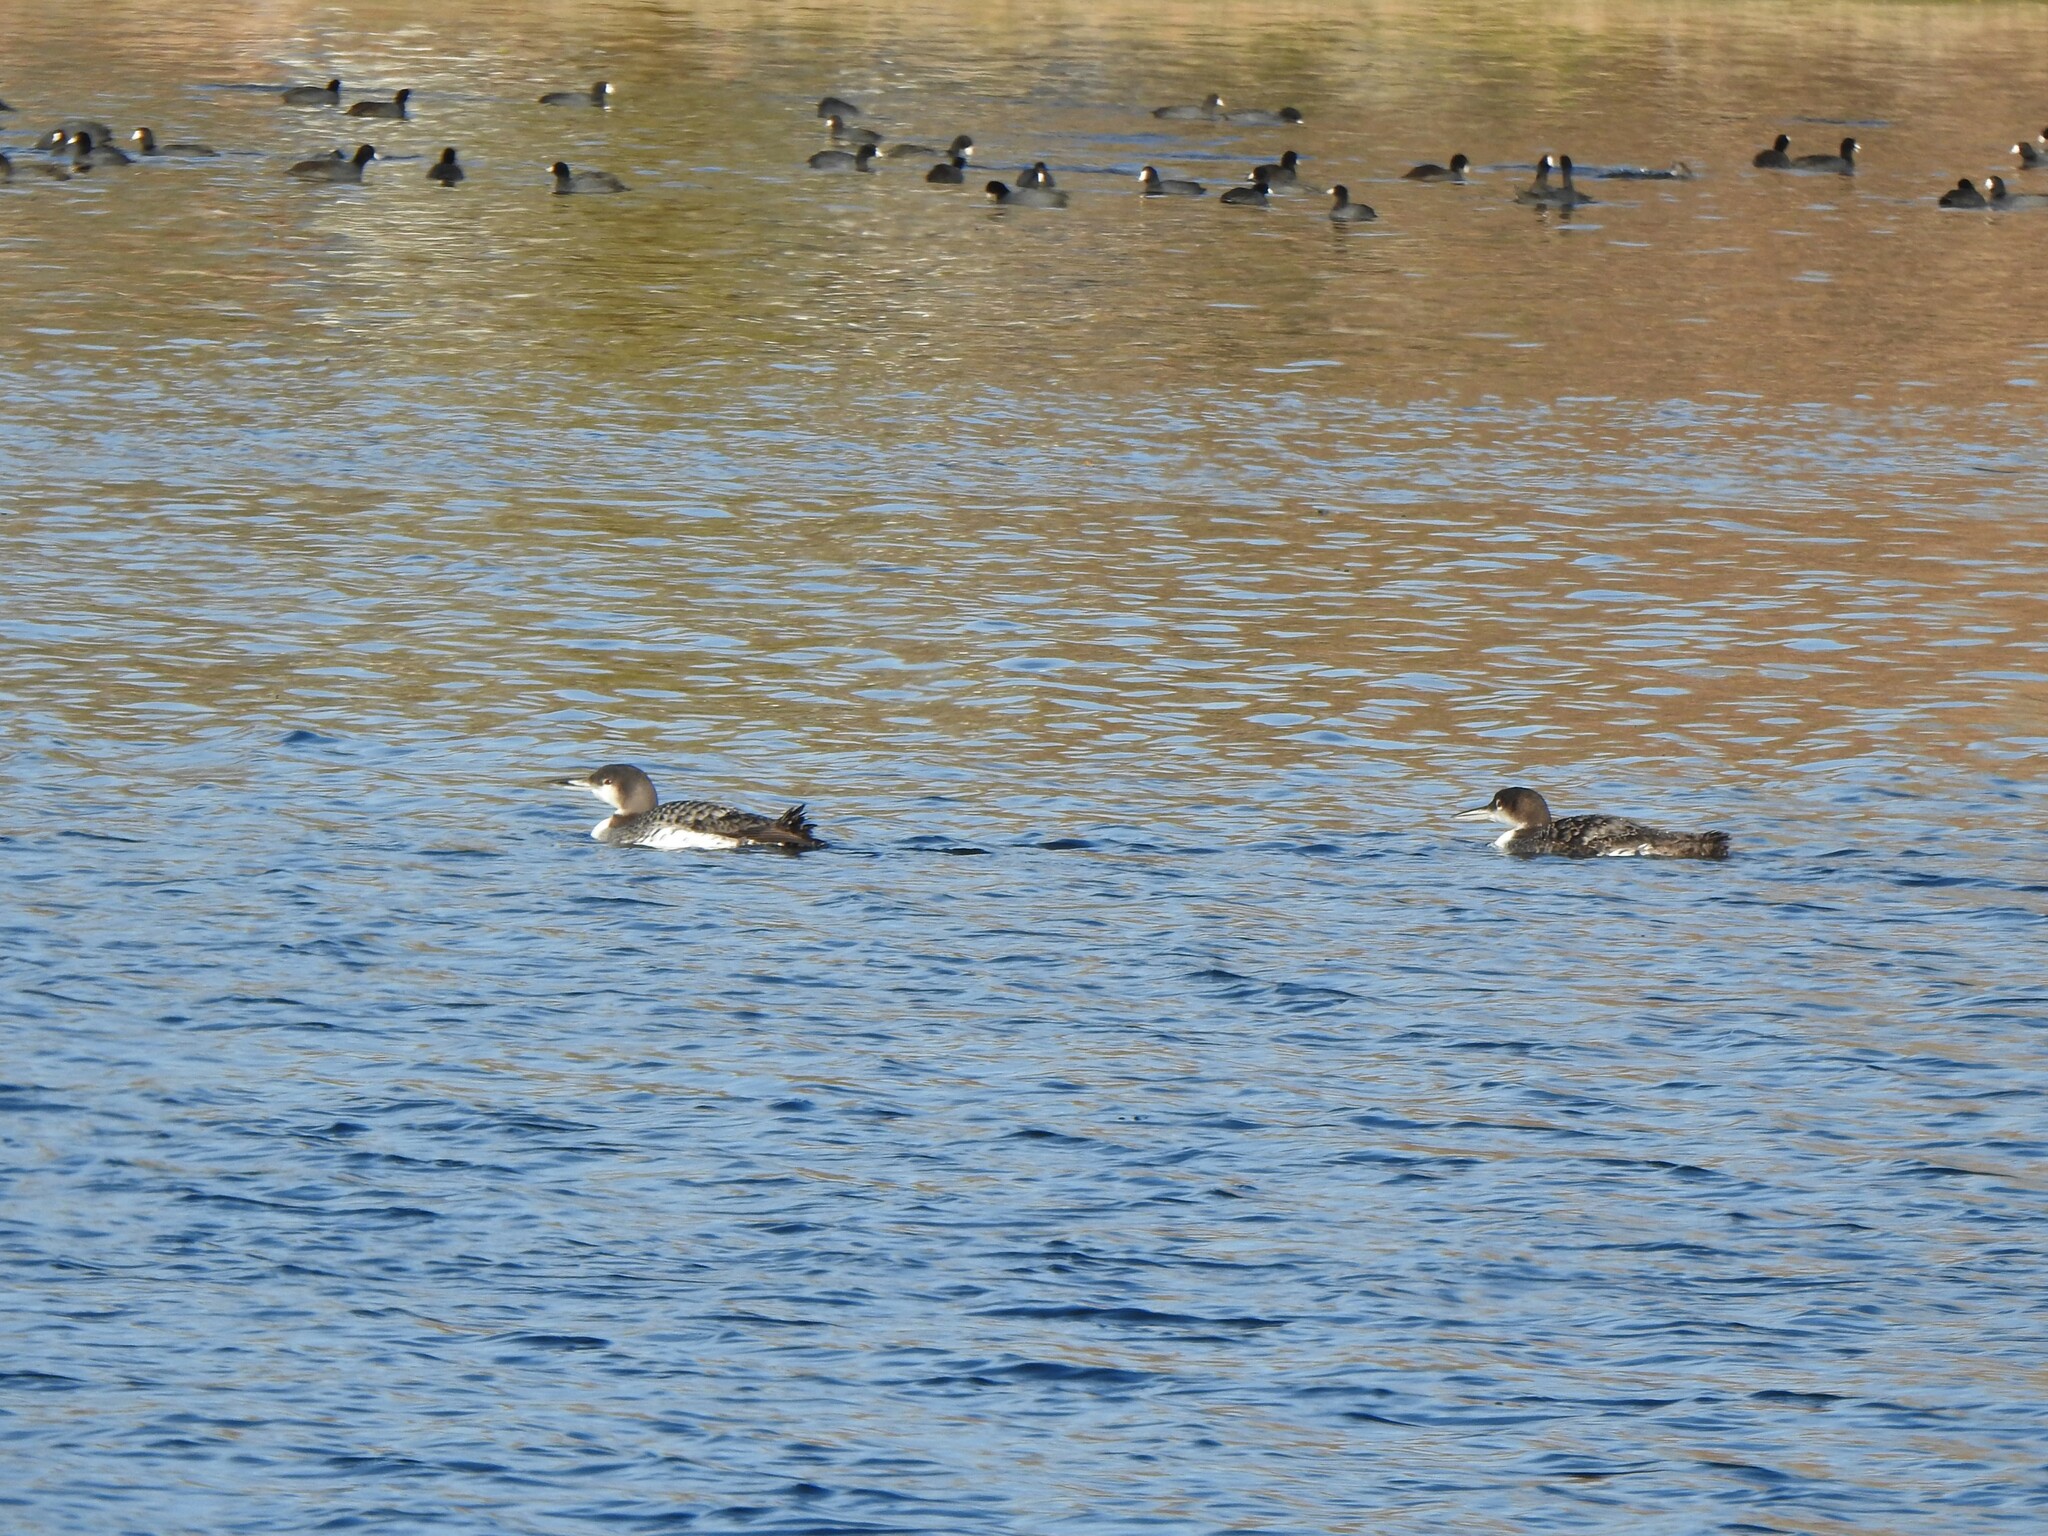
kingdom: Animalia
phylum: Chordata
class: Aves
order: Gaviiformes
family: Gaviidae
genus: Gavia
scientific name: Gavia immer
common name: Common loon
